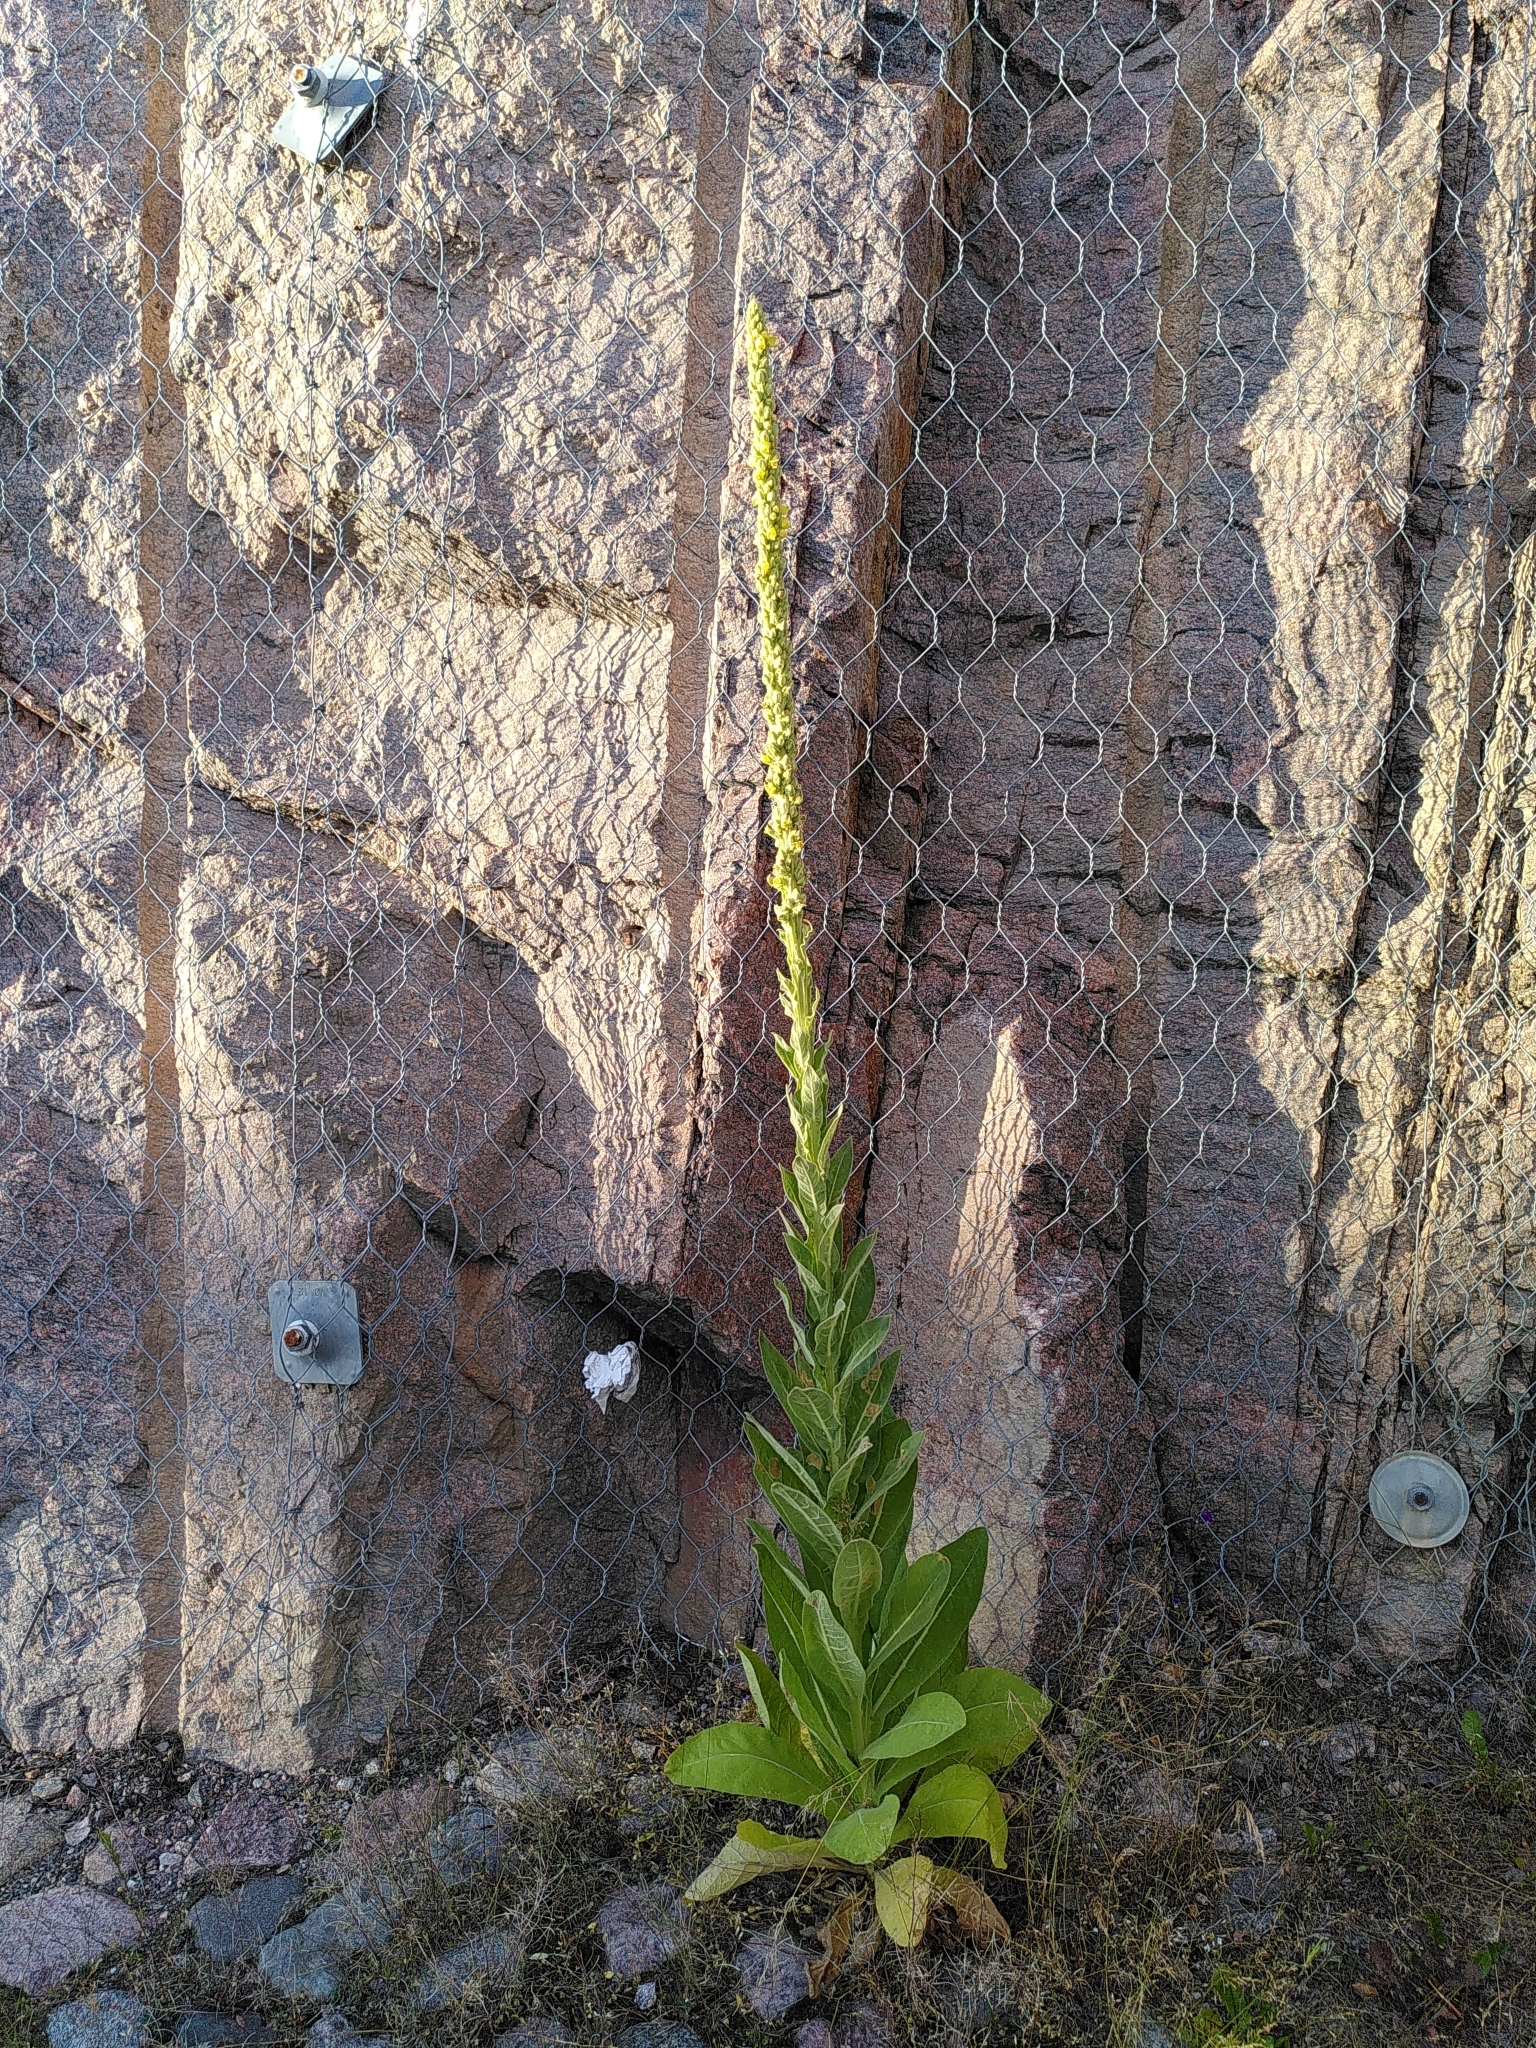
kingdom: Plantae
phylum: Tracheophyta
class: Magnoliopsida
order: Lamiales
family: Scrophulariaceae
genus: Verbascum
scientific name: Verbascum thapsus
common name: Common mullein
